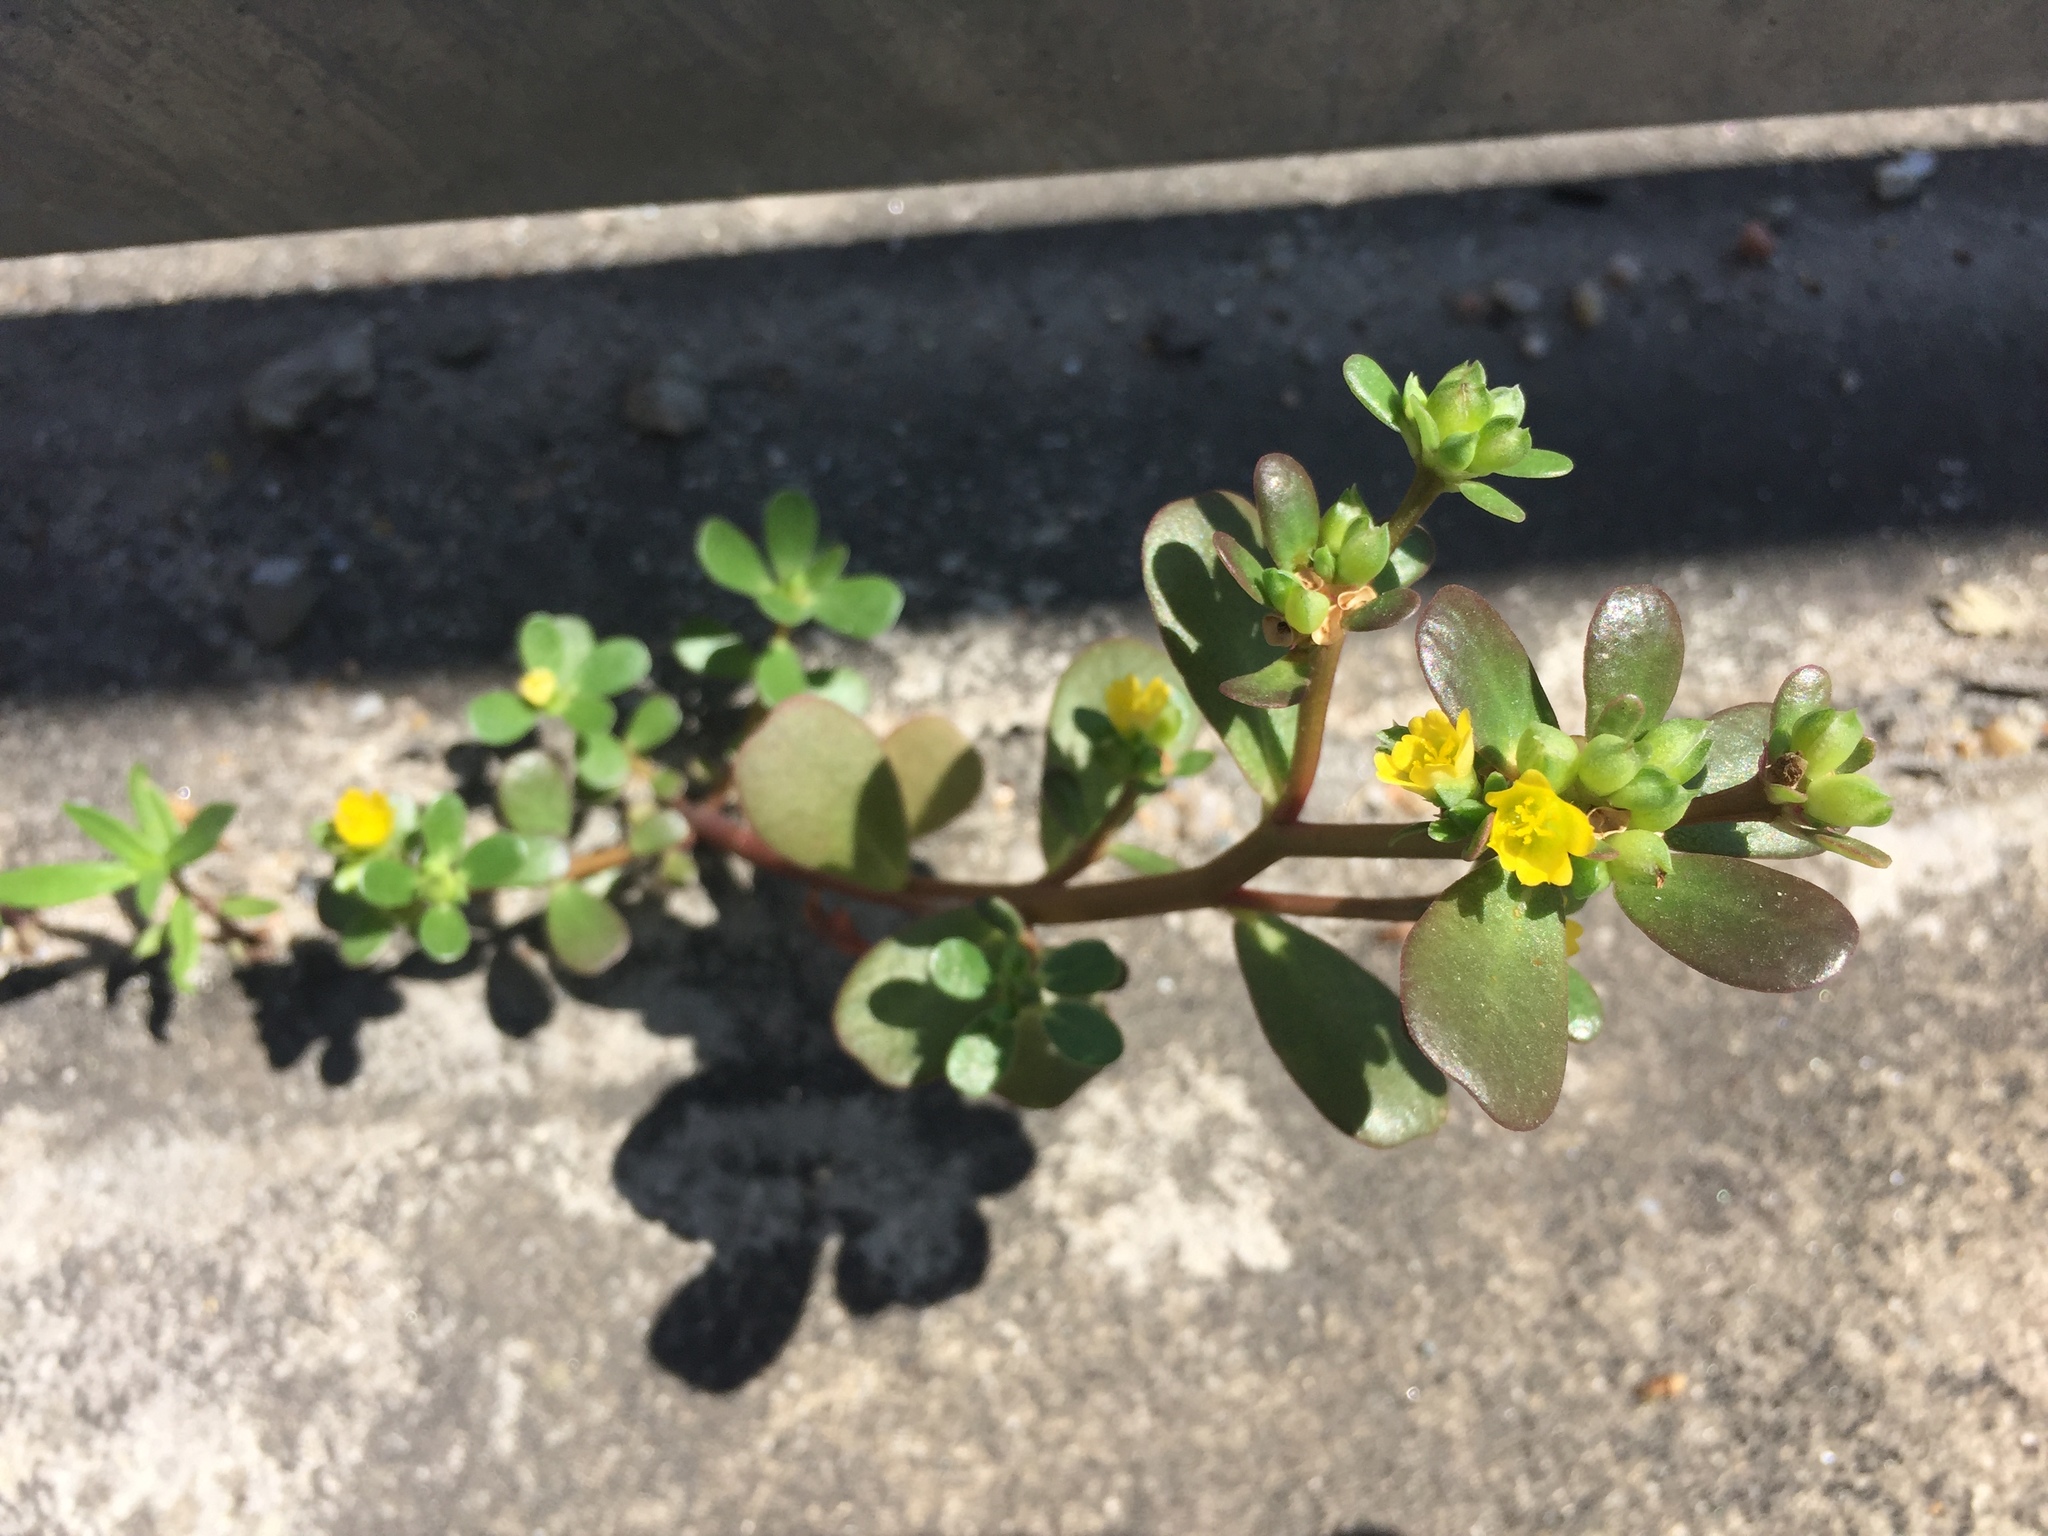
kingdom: Plantae
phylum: Tracheophyta
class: Magnoliopsida
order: Caryophyllales
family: Portulacaceae
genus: Portulaca
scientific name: Portulaca oleracea
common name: Common purslane
